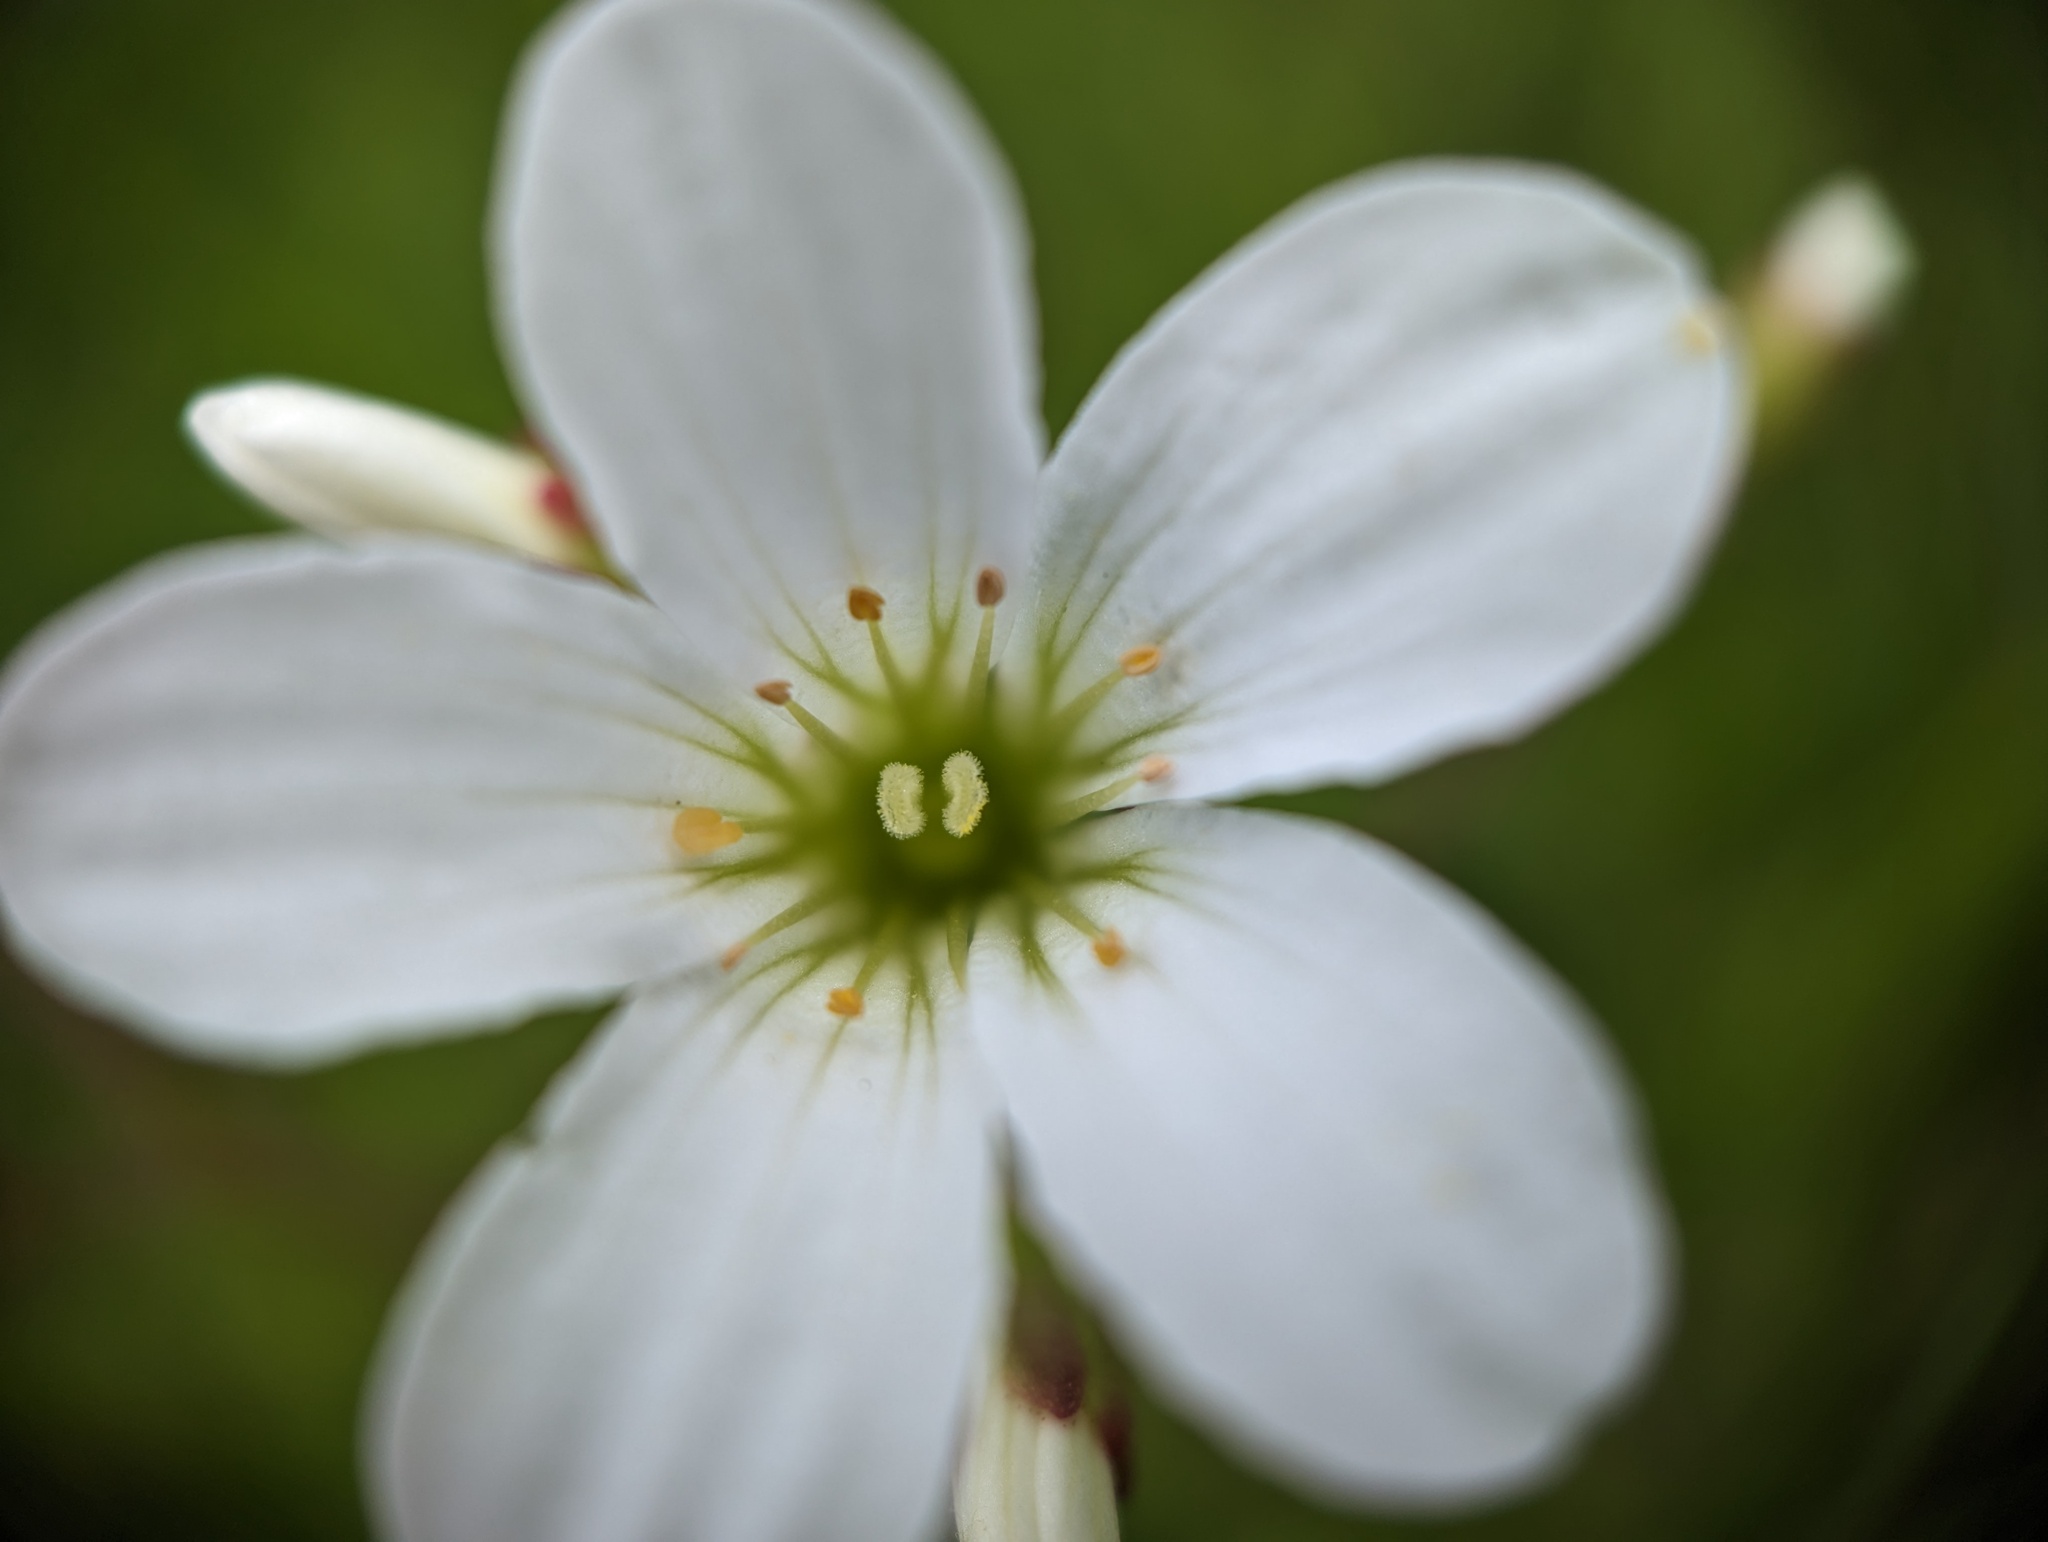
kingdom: Plantae
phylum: Tracheophyta
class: Magnoliopsida
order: Saxifragales
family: Saxifragaceae
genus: Saxifraga
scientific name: Saxifraga granulata
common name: Meadow saxifrage
